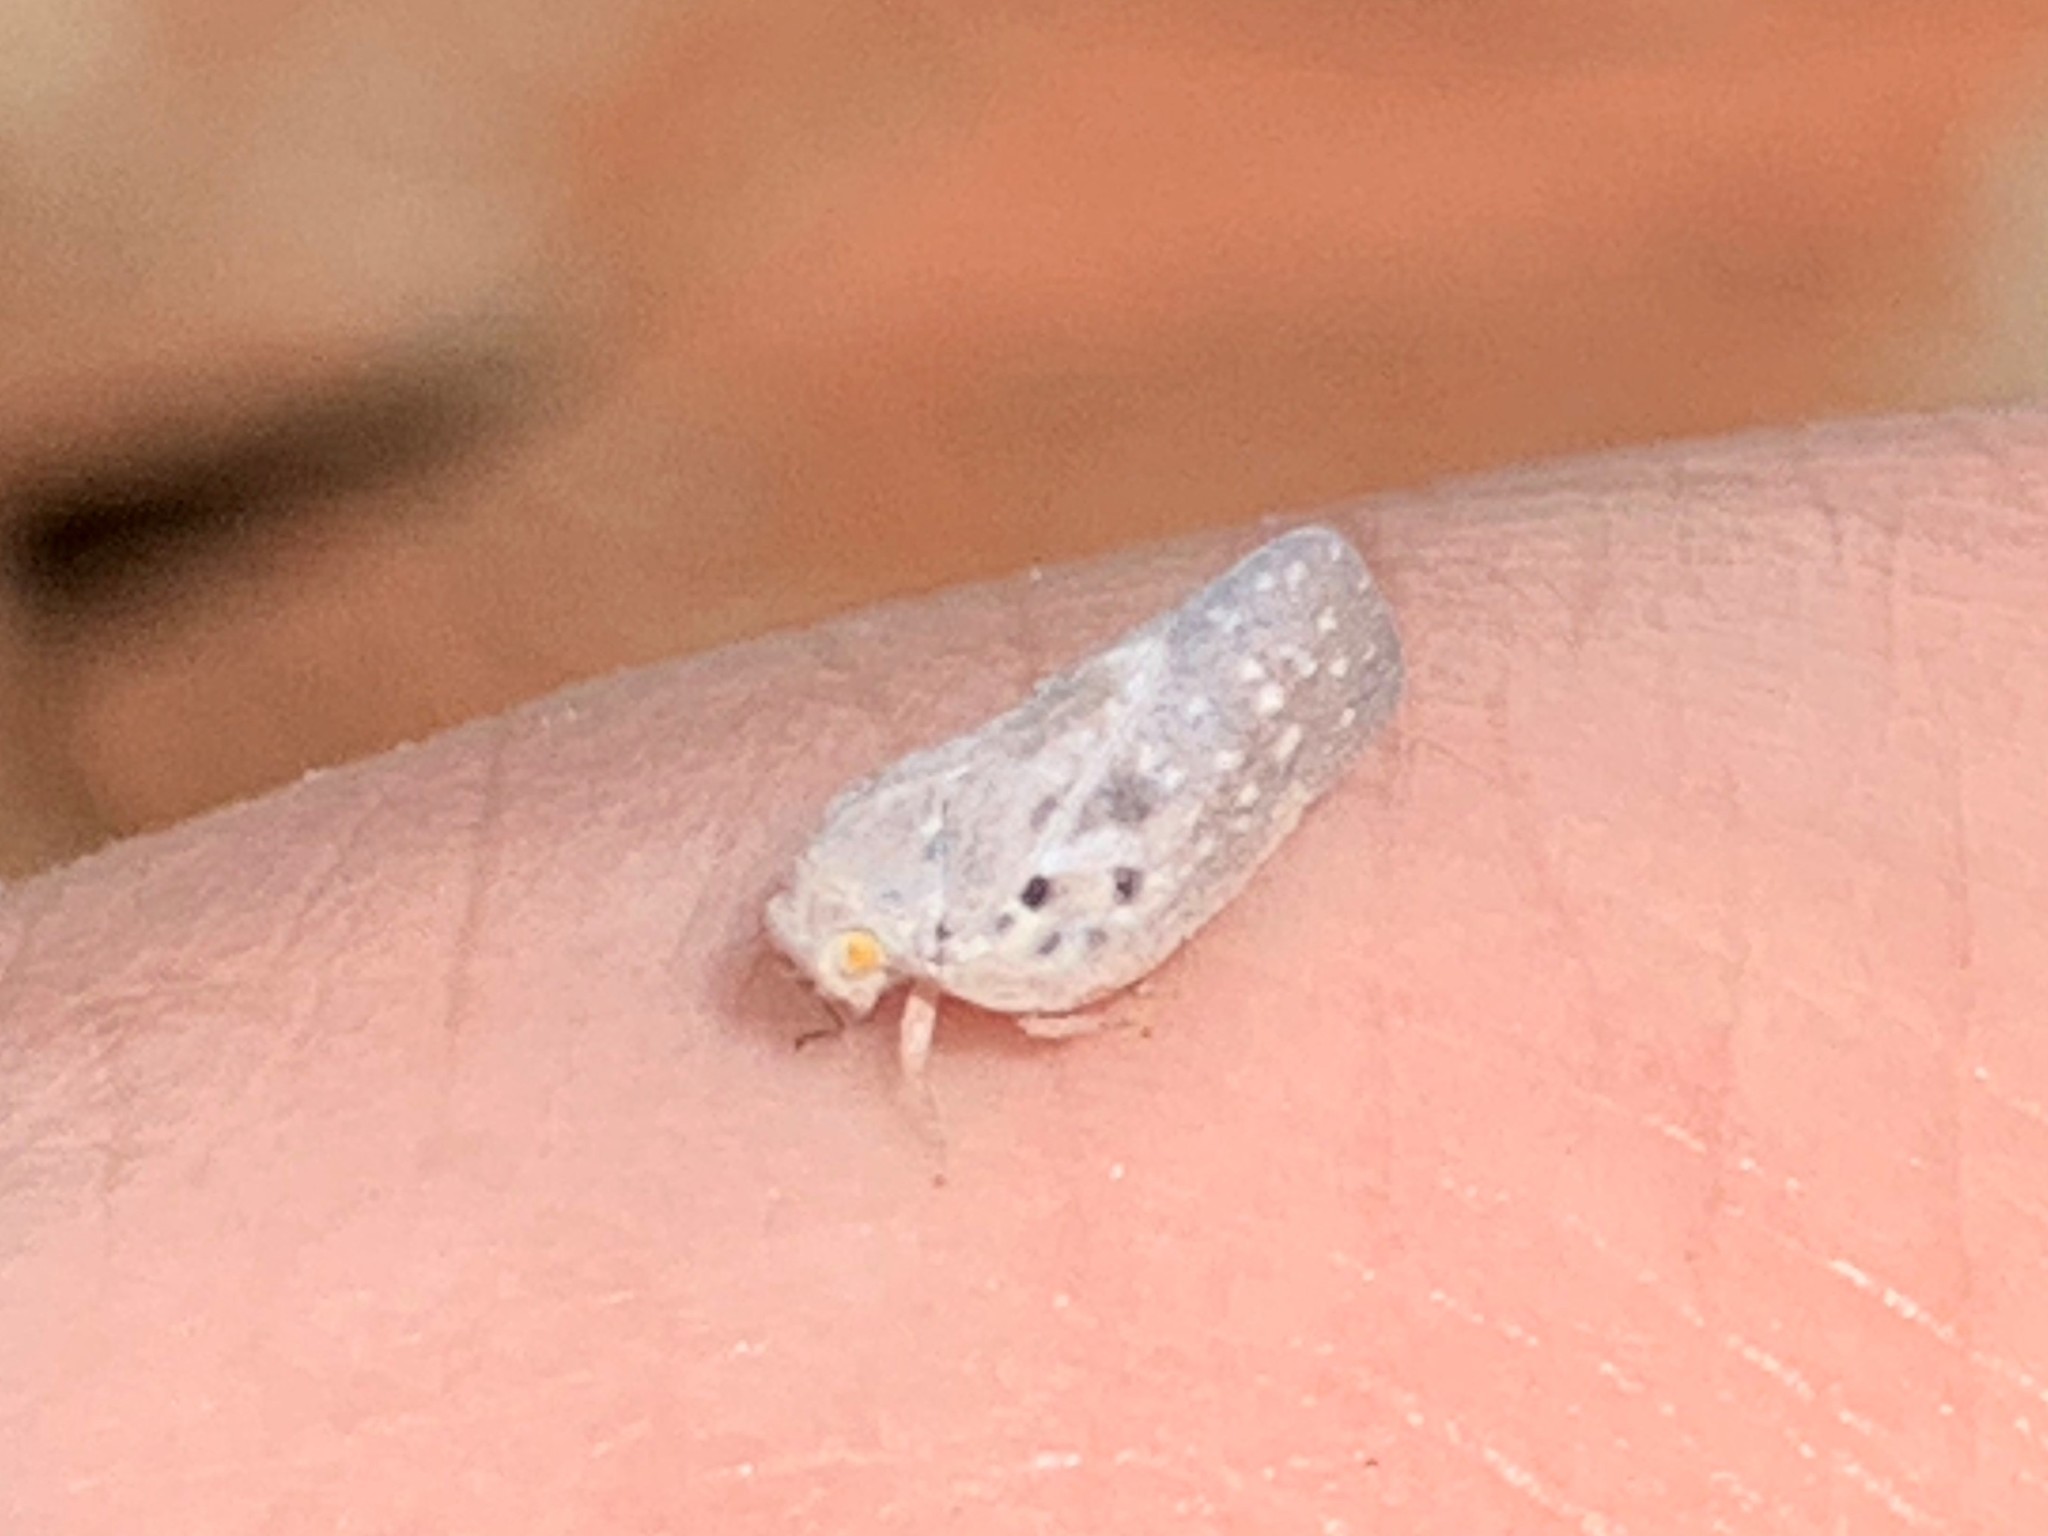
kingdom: Animalia
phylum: Arthropoda
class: Insecta
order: Hemiptera
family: Flatidae
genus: Metcalfa
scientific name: Metcalfa pruinosa
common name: Citrus flatid planthopper
